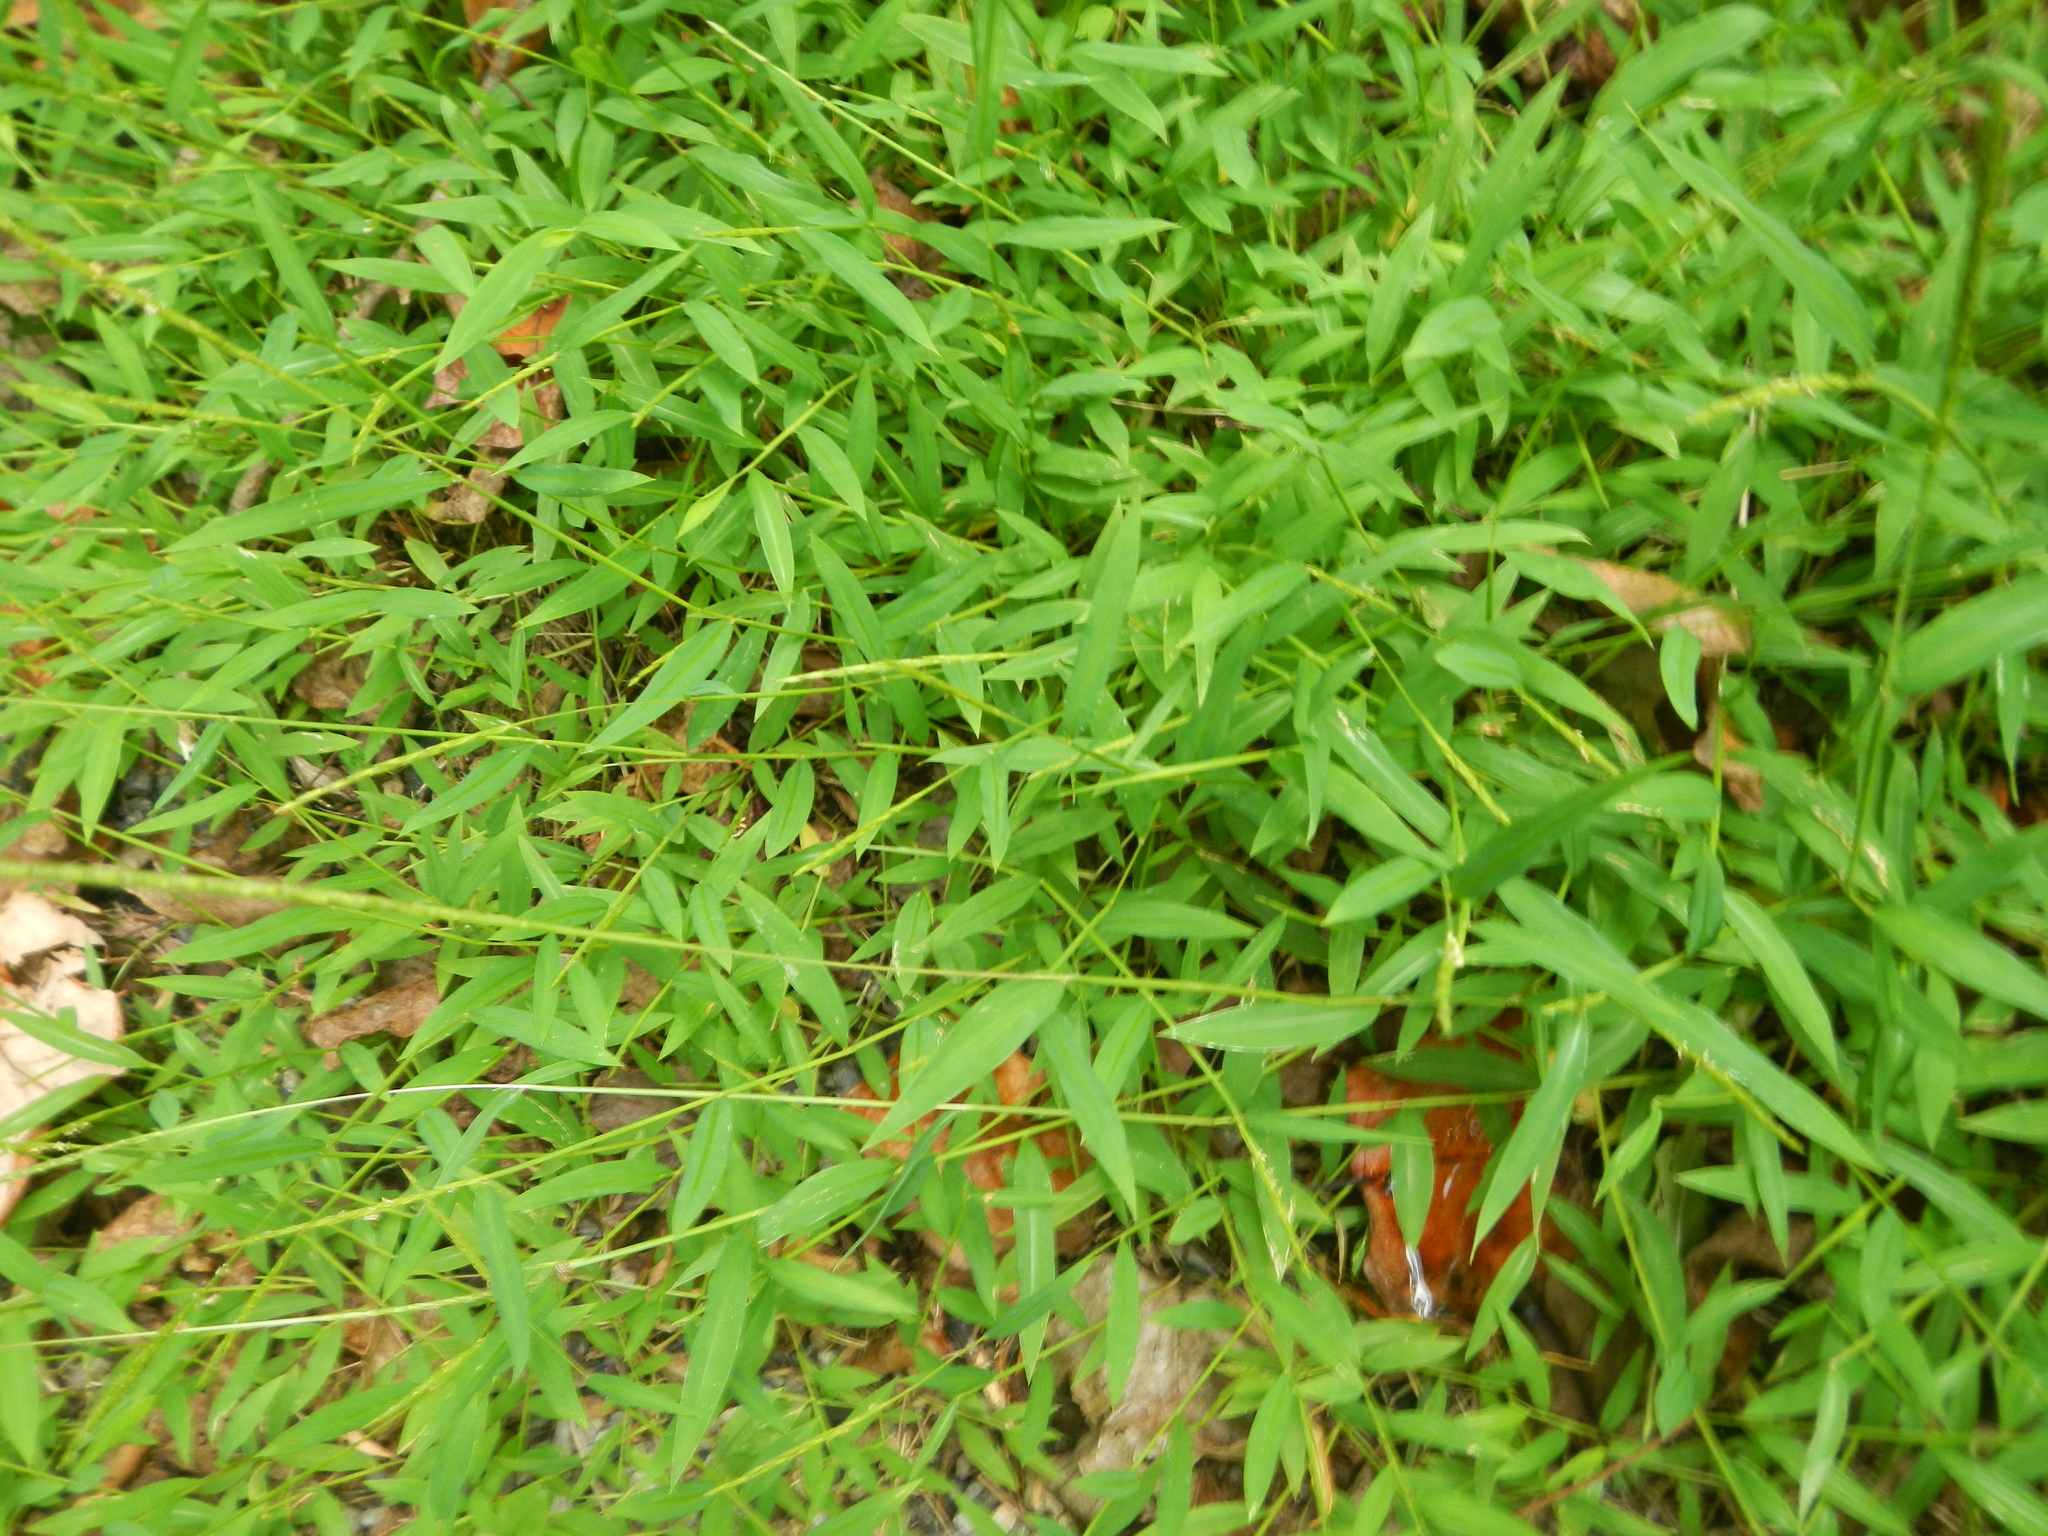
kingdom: Plantae
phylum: Tracheophyta
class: Liliopsida
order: Poales
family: Poaceae
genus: Microstegium
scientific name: Microstegium vimineum
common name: Japanese stiltgrass
